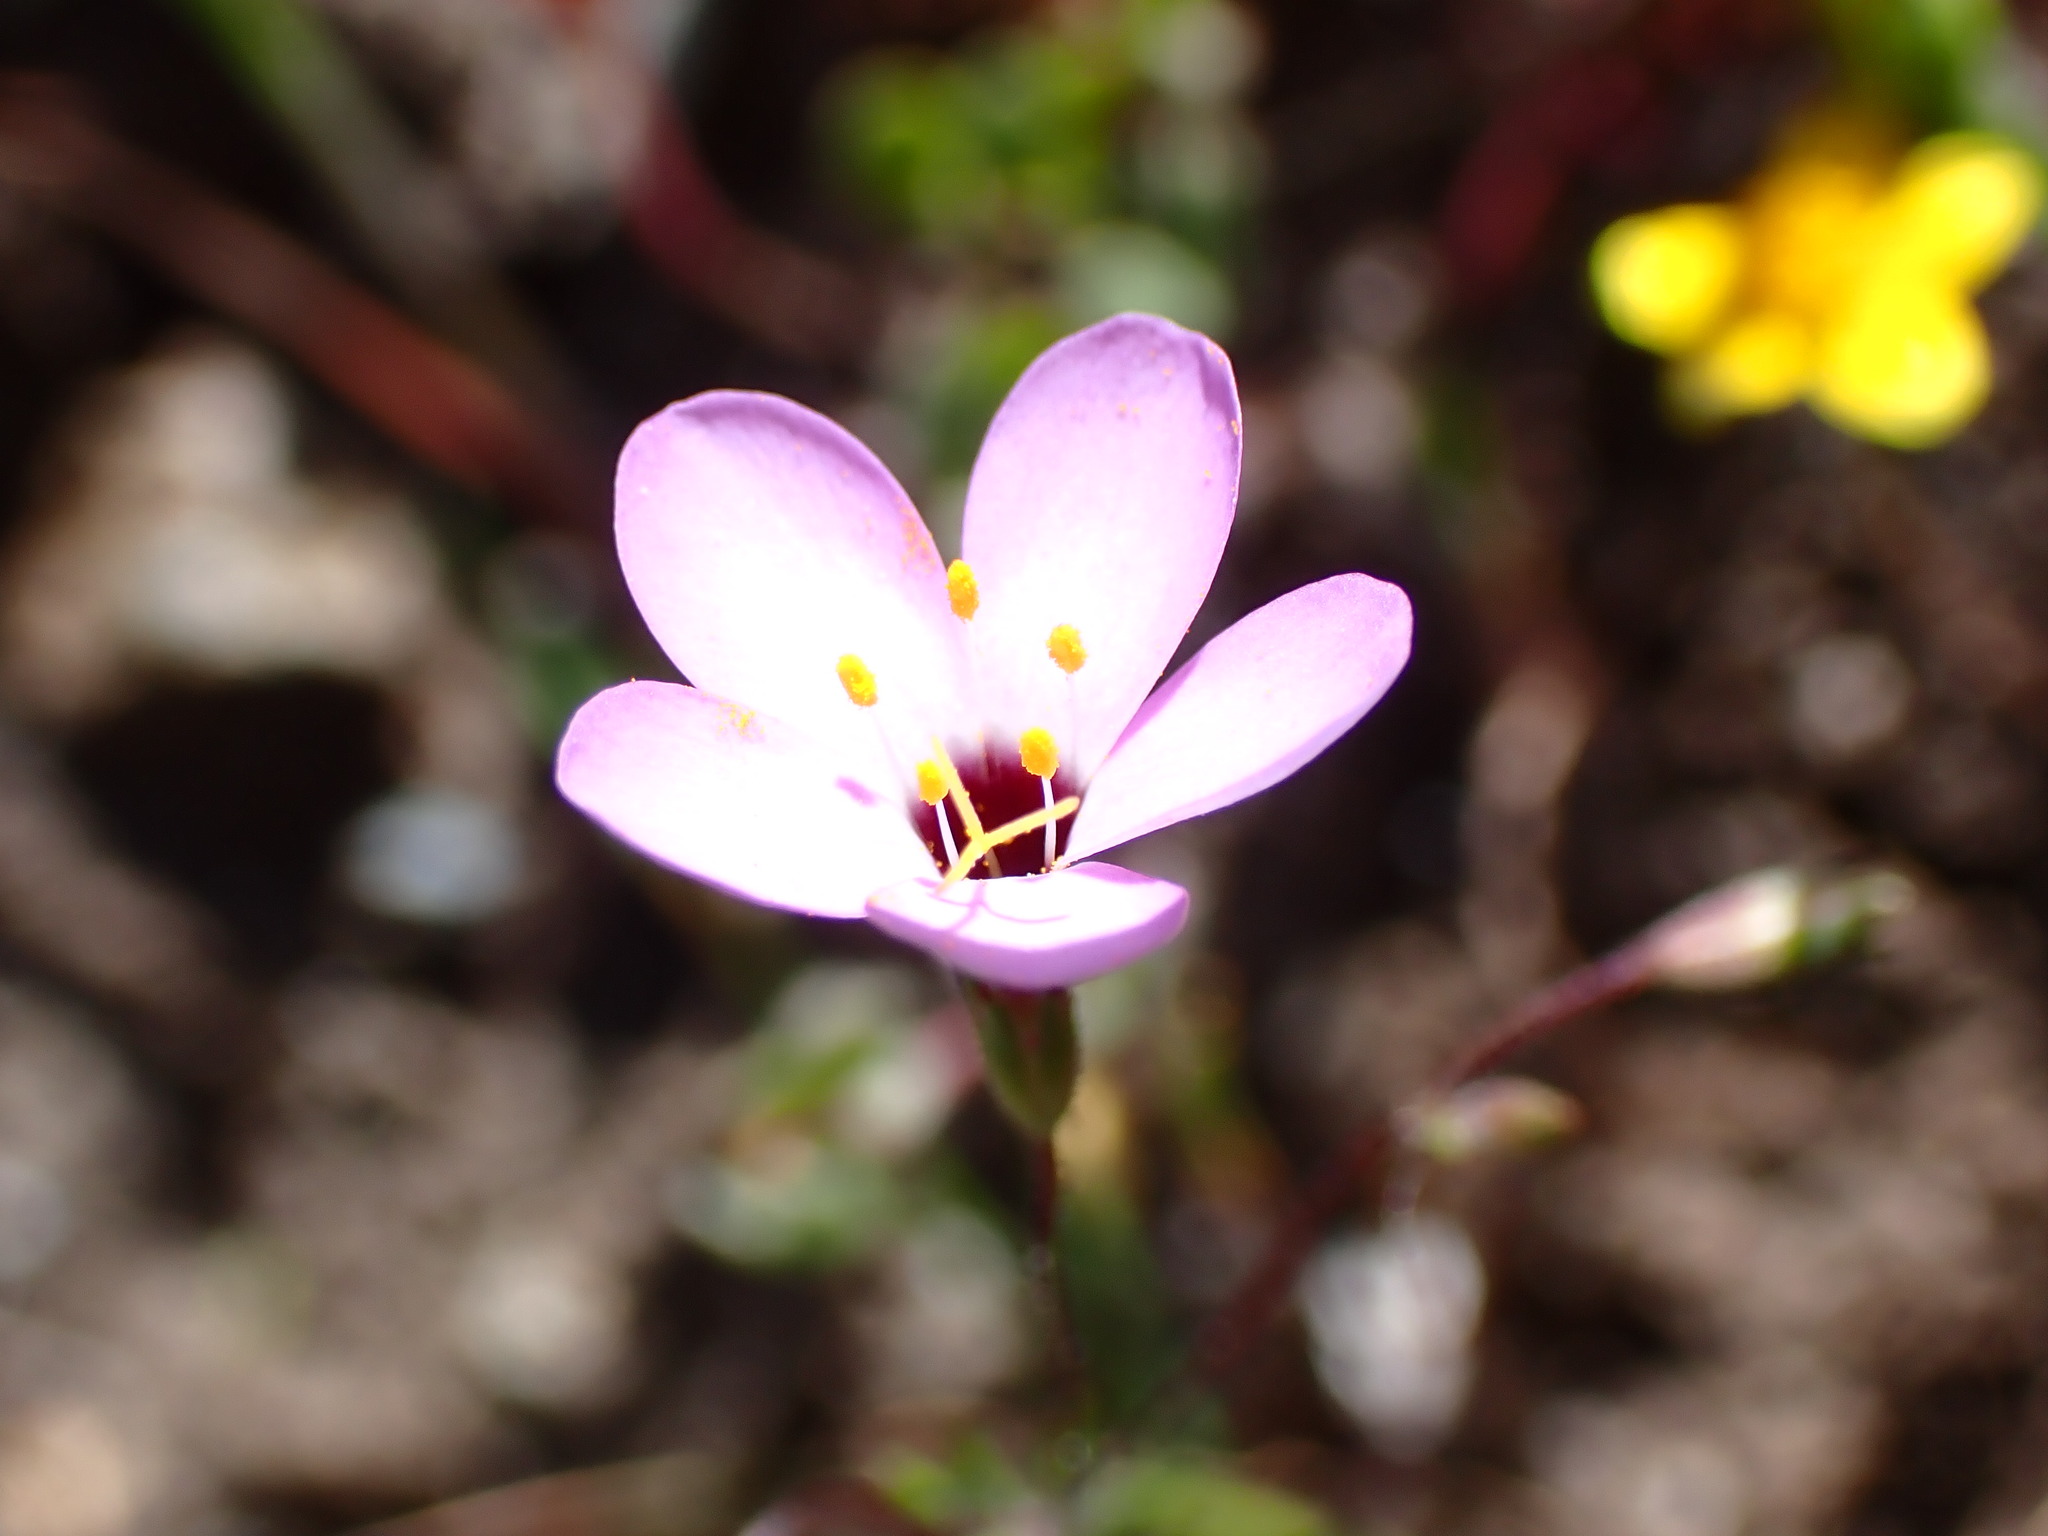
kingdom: Plantae
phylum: Tracheophyta
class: Magnoliopsida
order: Ericales
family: Polemoniaceae
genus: Leptosiphon
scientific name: Leptosiphon ambiguus
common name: Serpentine linanthus
